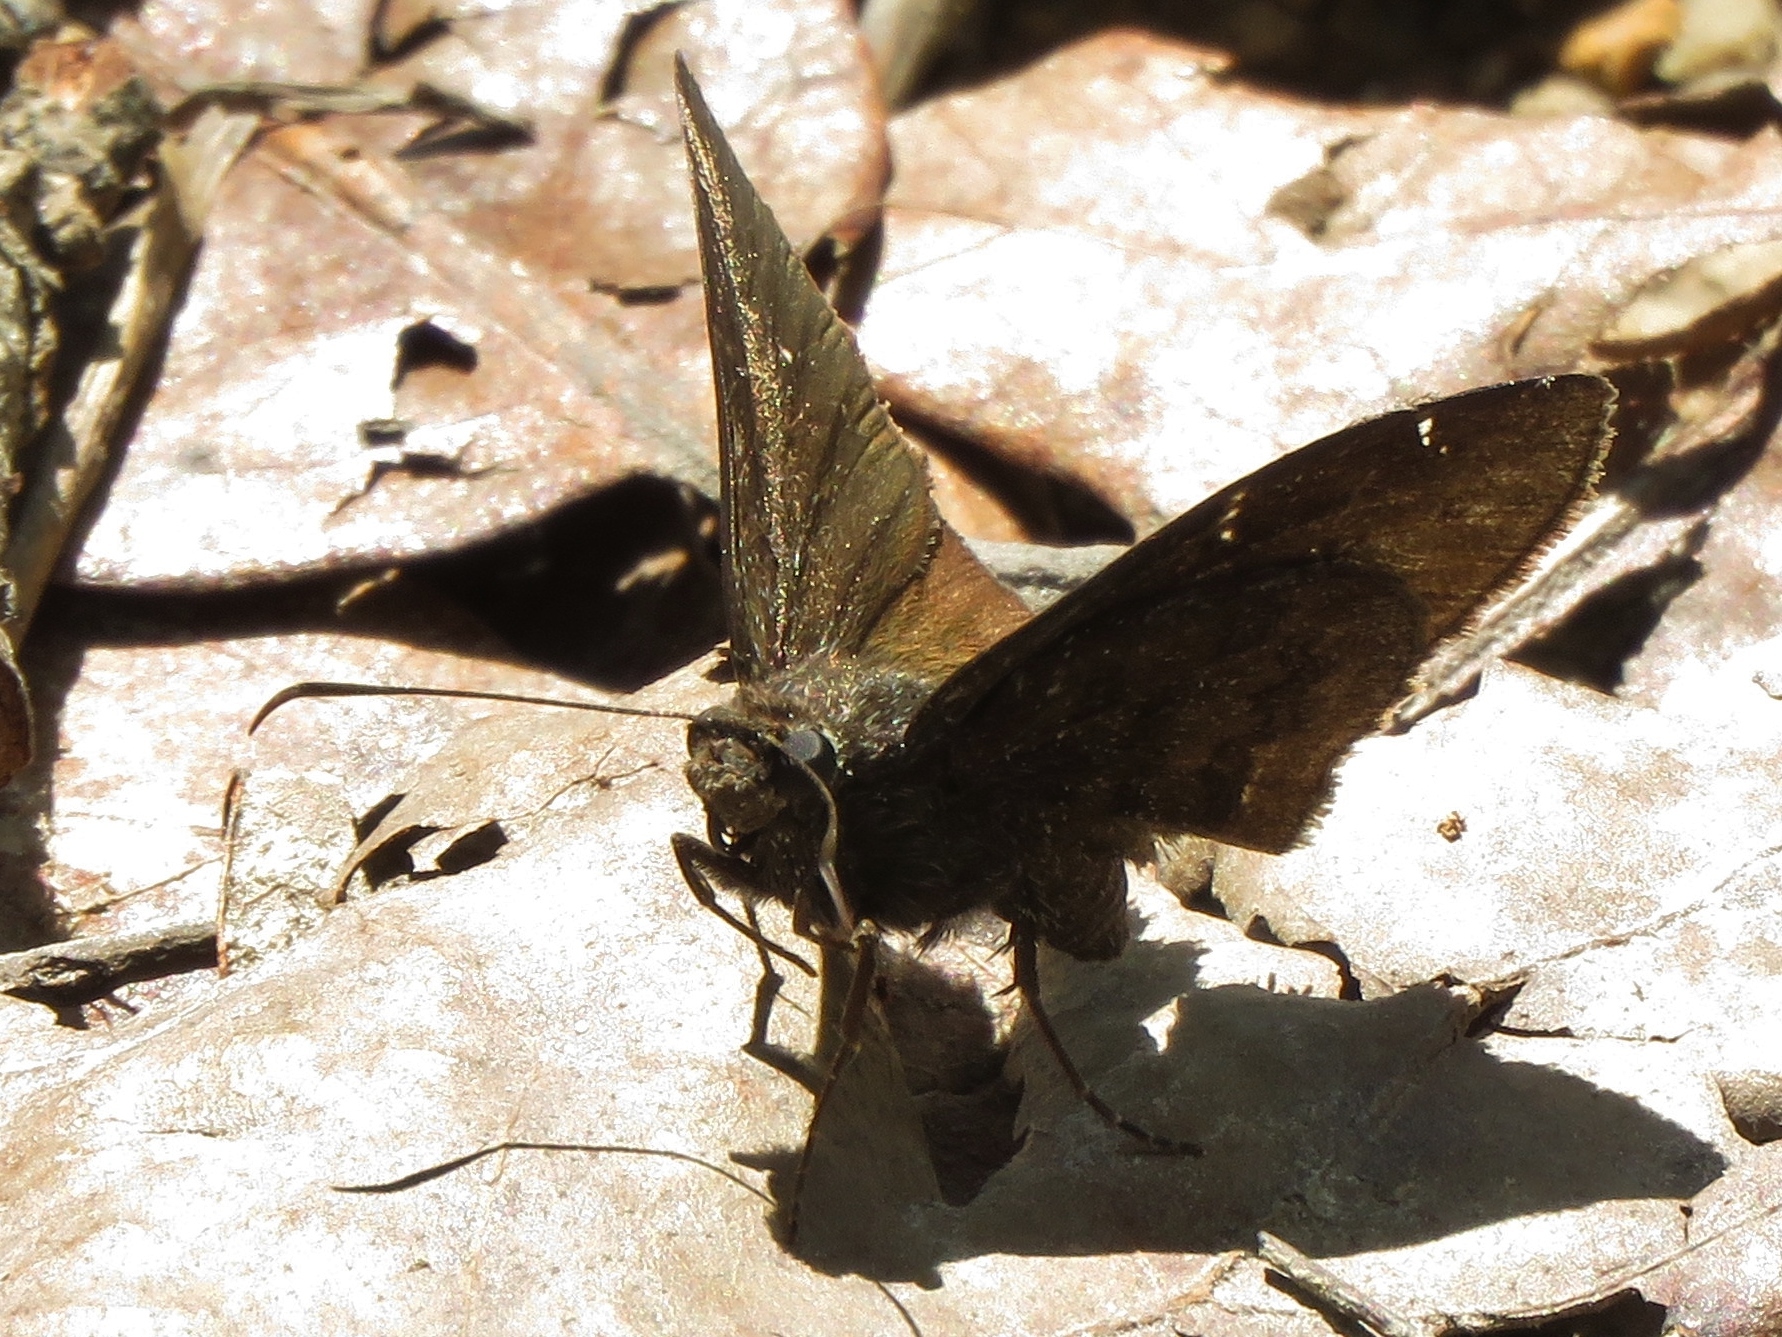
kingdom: Animalia
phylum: Arthropoda
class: Insecta
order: Lepidoptera
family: Hesperiidae
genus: Thorybes
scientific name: Thorybes pylades
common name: Northern cloudywing
